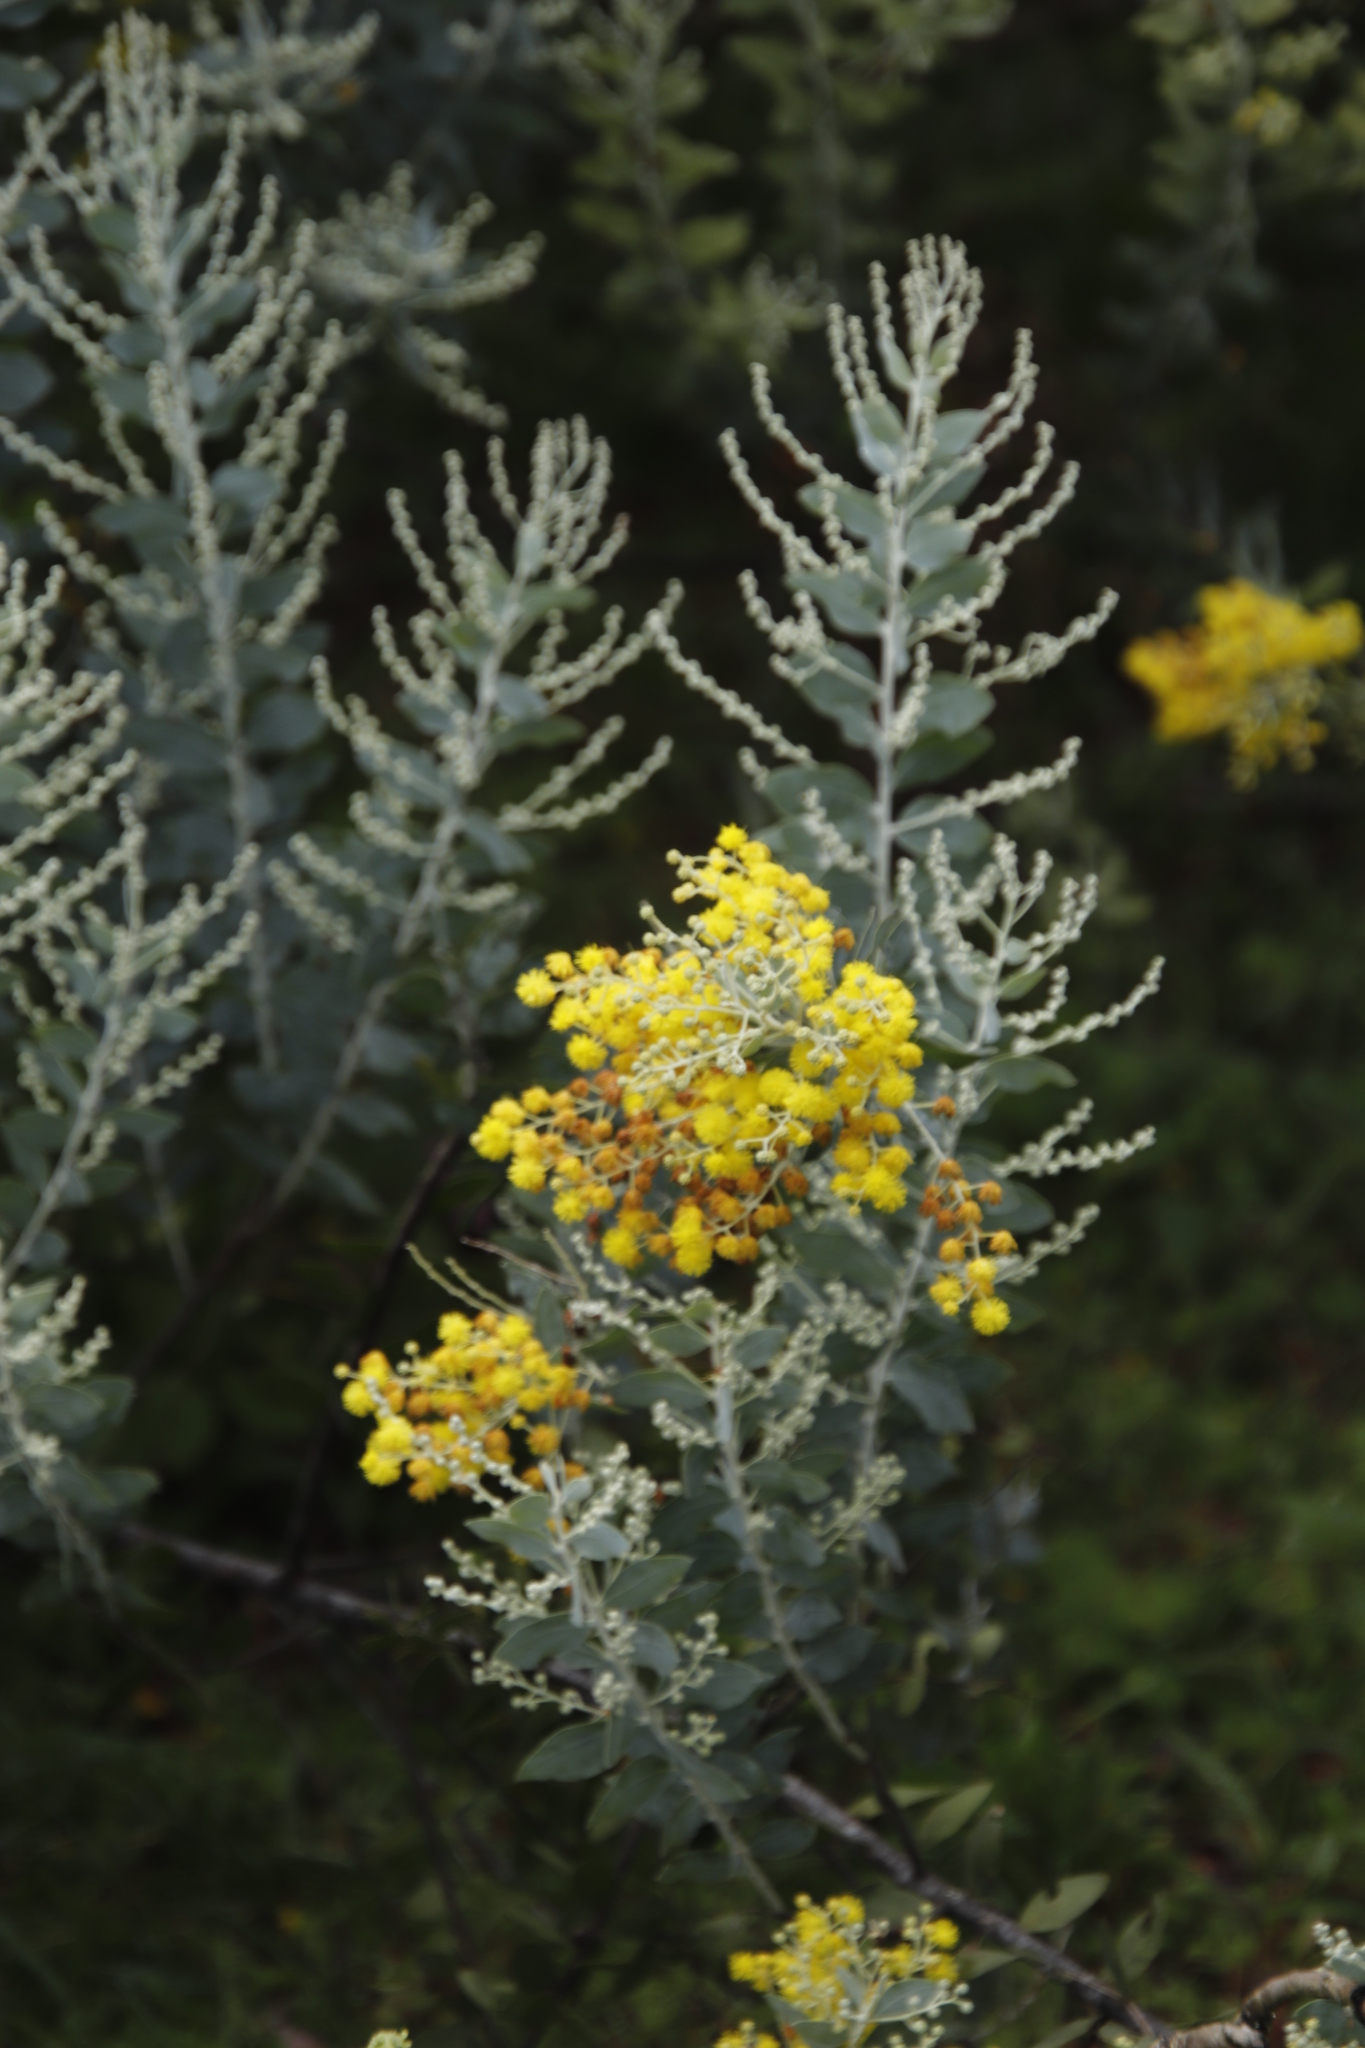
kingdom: Plantae
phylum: Tracheophyta
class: Magnoliopsida
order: Fabales
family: Fabaceae
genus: Acacia
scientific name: Acacia podalyriifolia
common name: Pearl wattle
